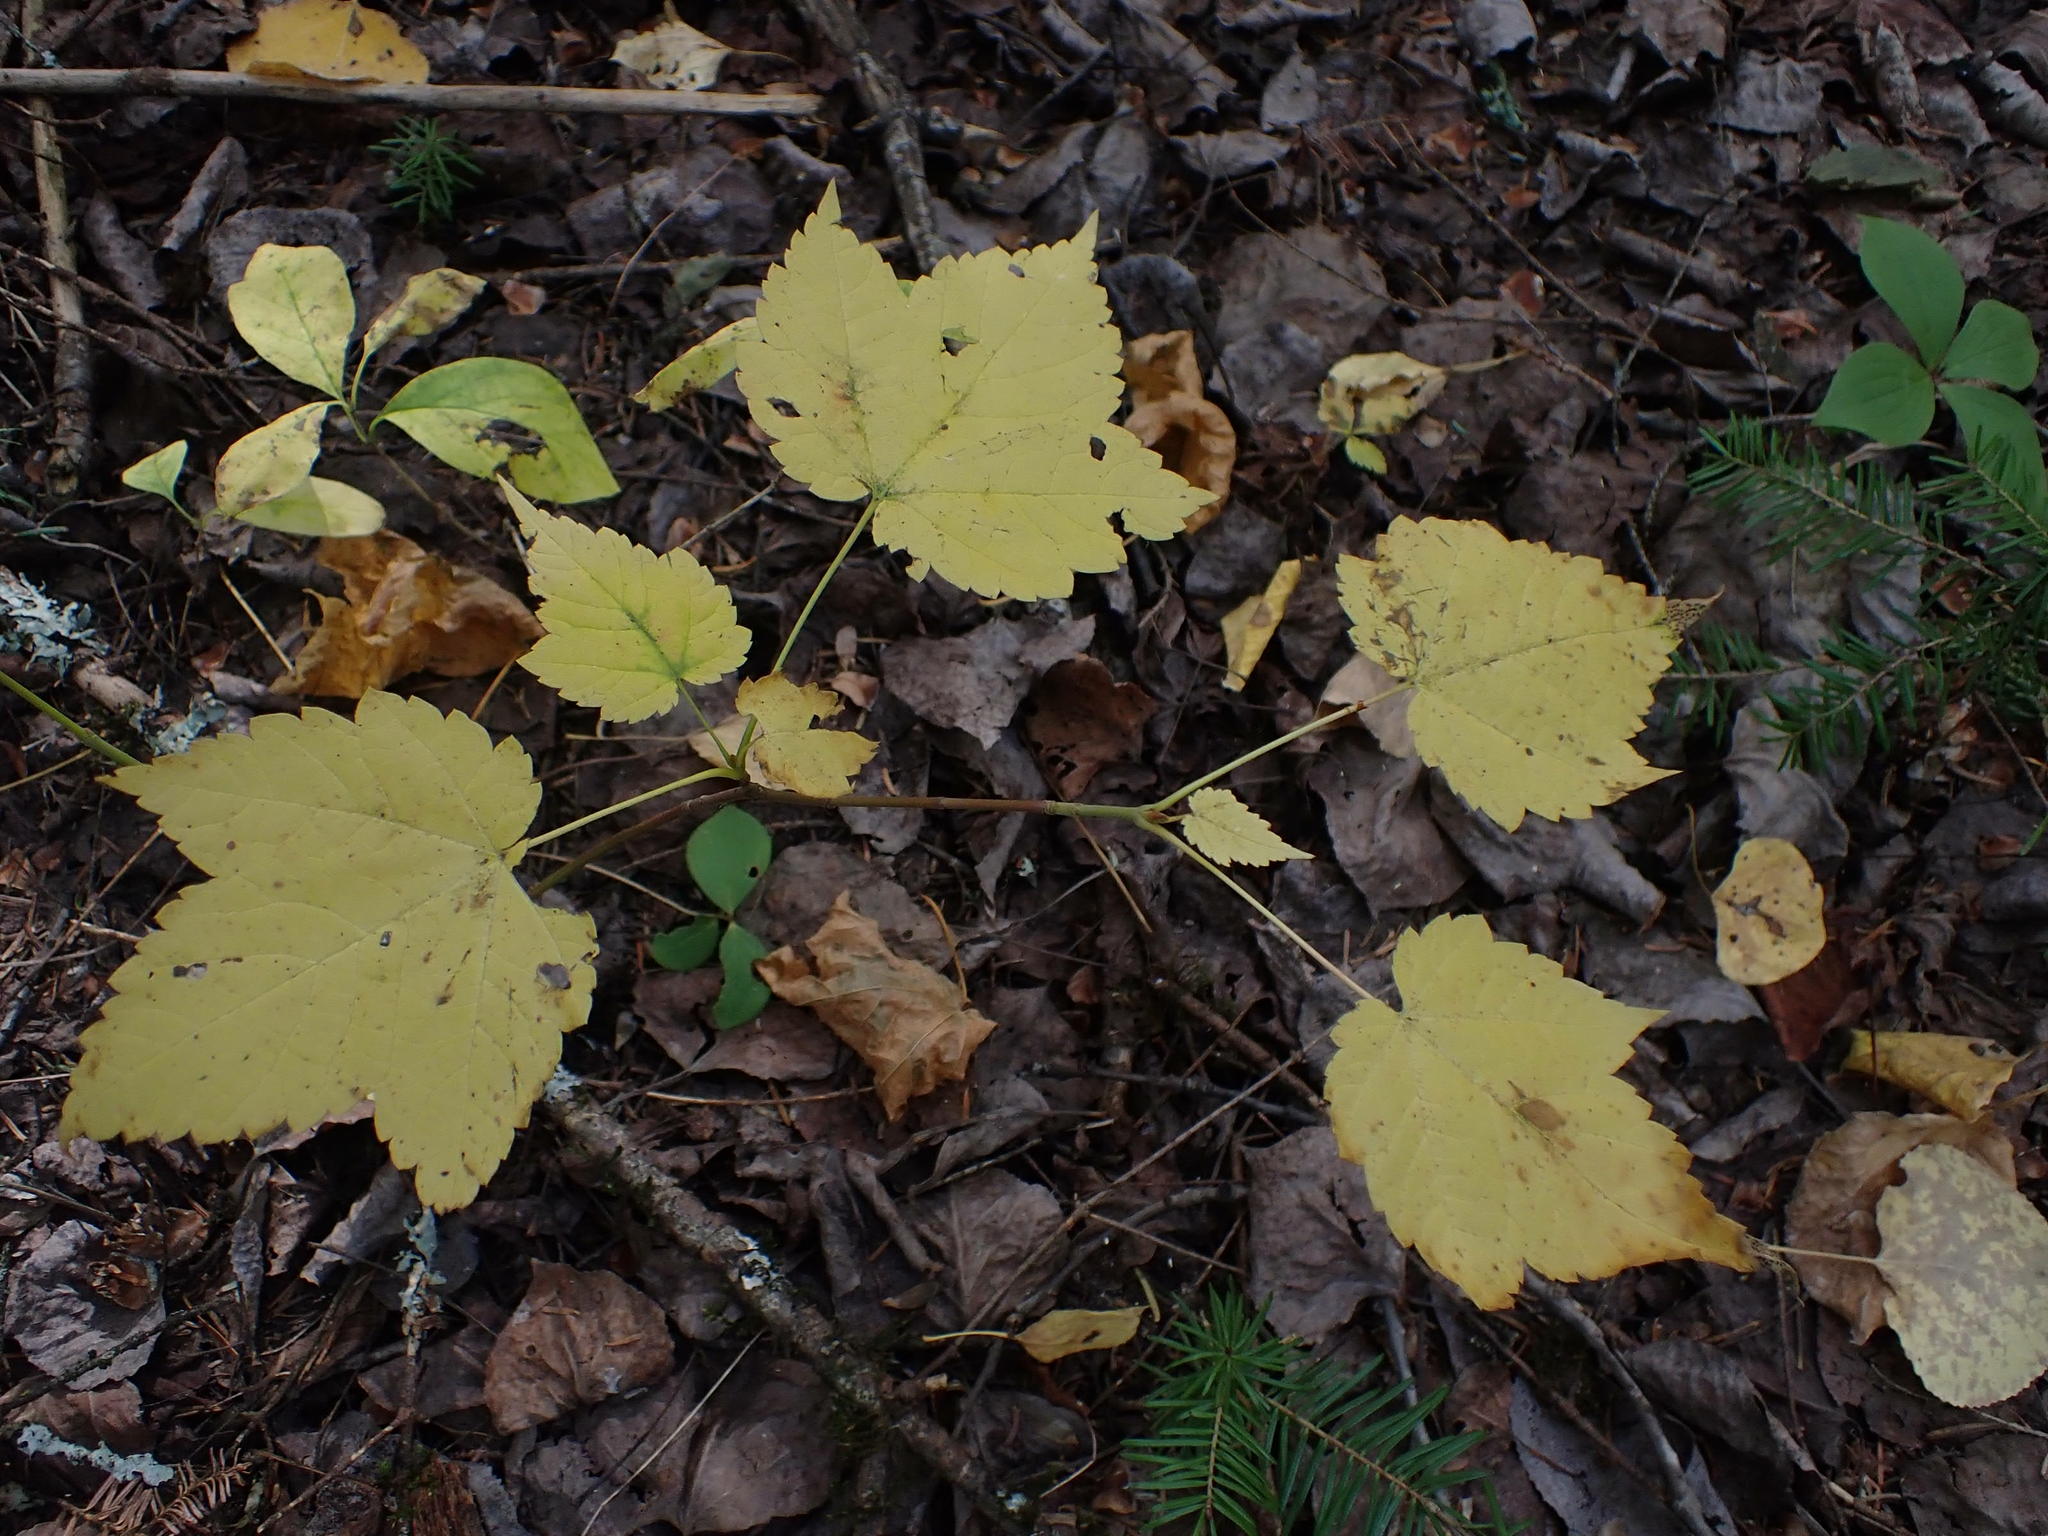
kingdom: Plantae
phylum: Tracheophyta
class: Magnoliopsida
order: Sapindales
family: Sapindaceae
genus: Acer
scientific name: Acer spicatum
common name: Mountain maple
